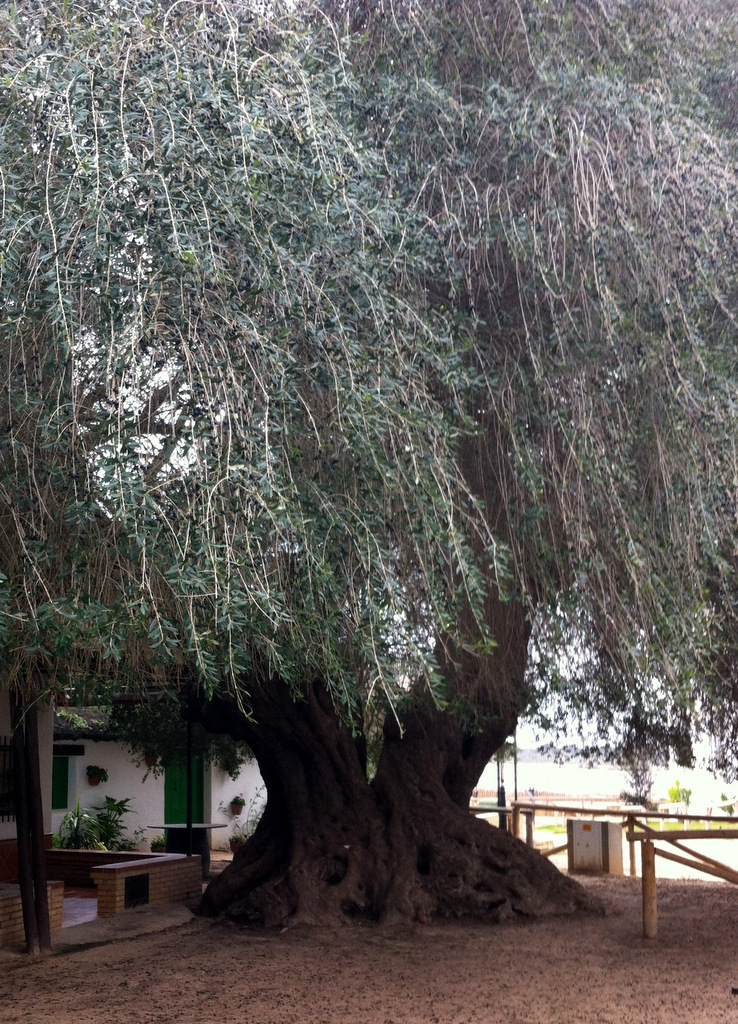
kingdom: Plantae
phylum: Tracheophyta
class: Magnoliopsida
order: Lamiales
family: Oleaceae
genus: Olea
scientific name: Olea europaea
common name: Olive
